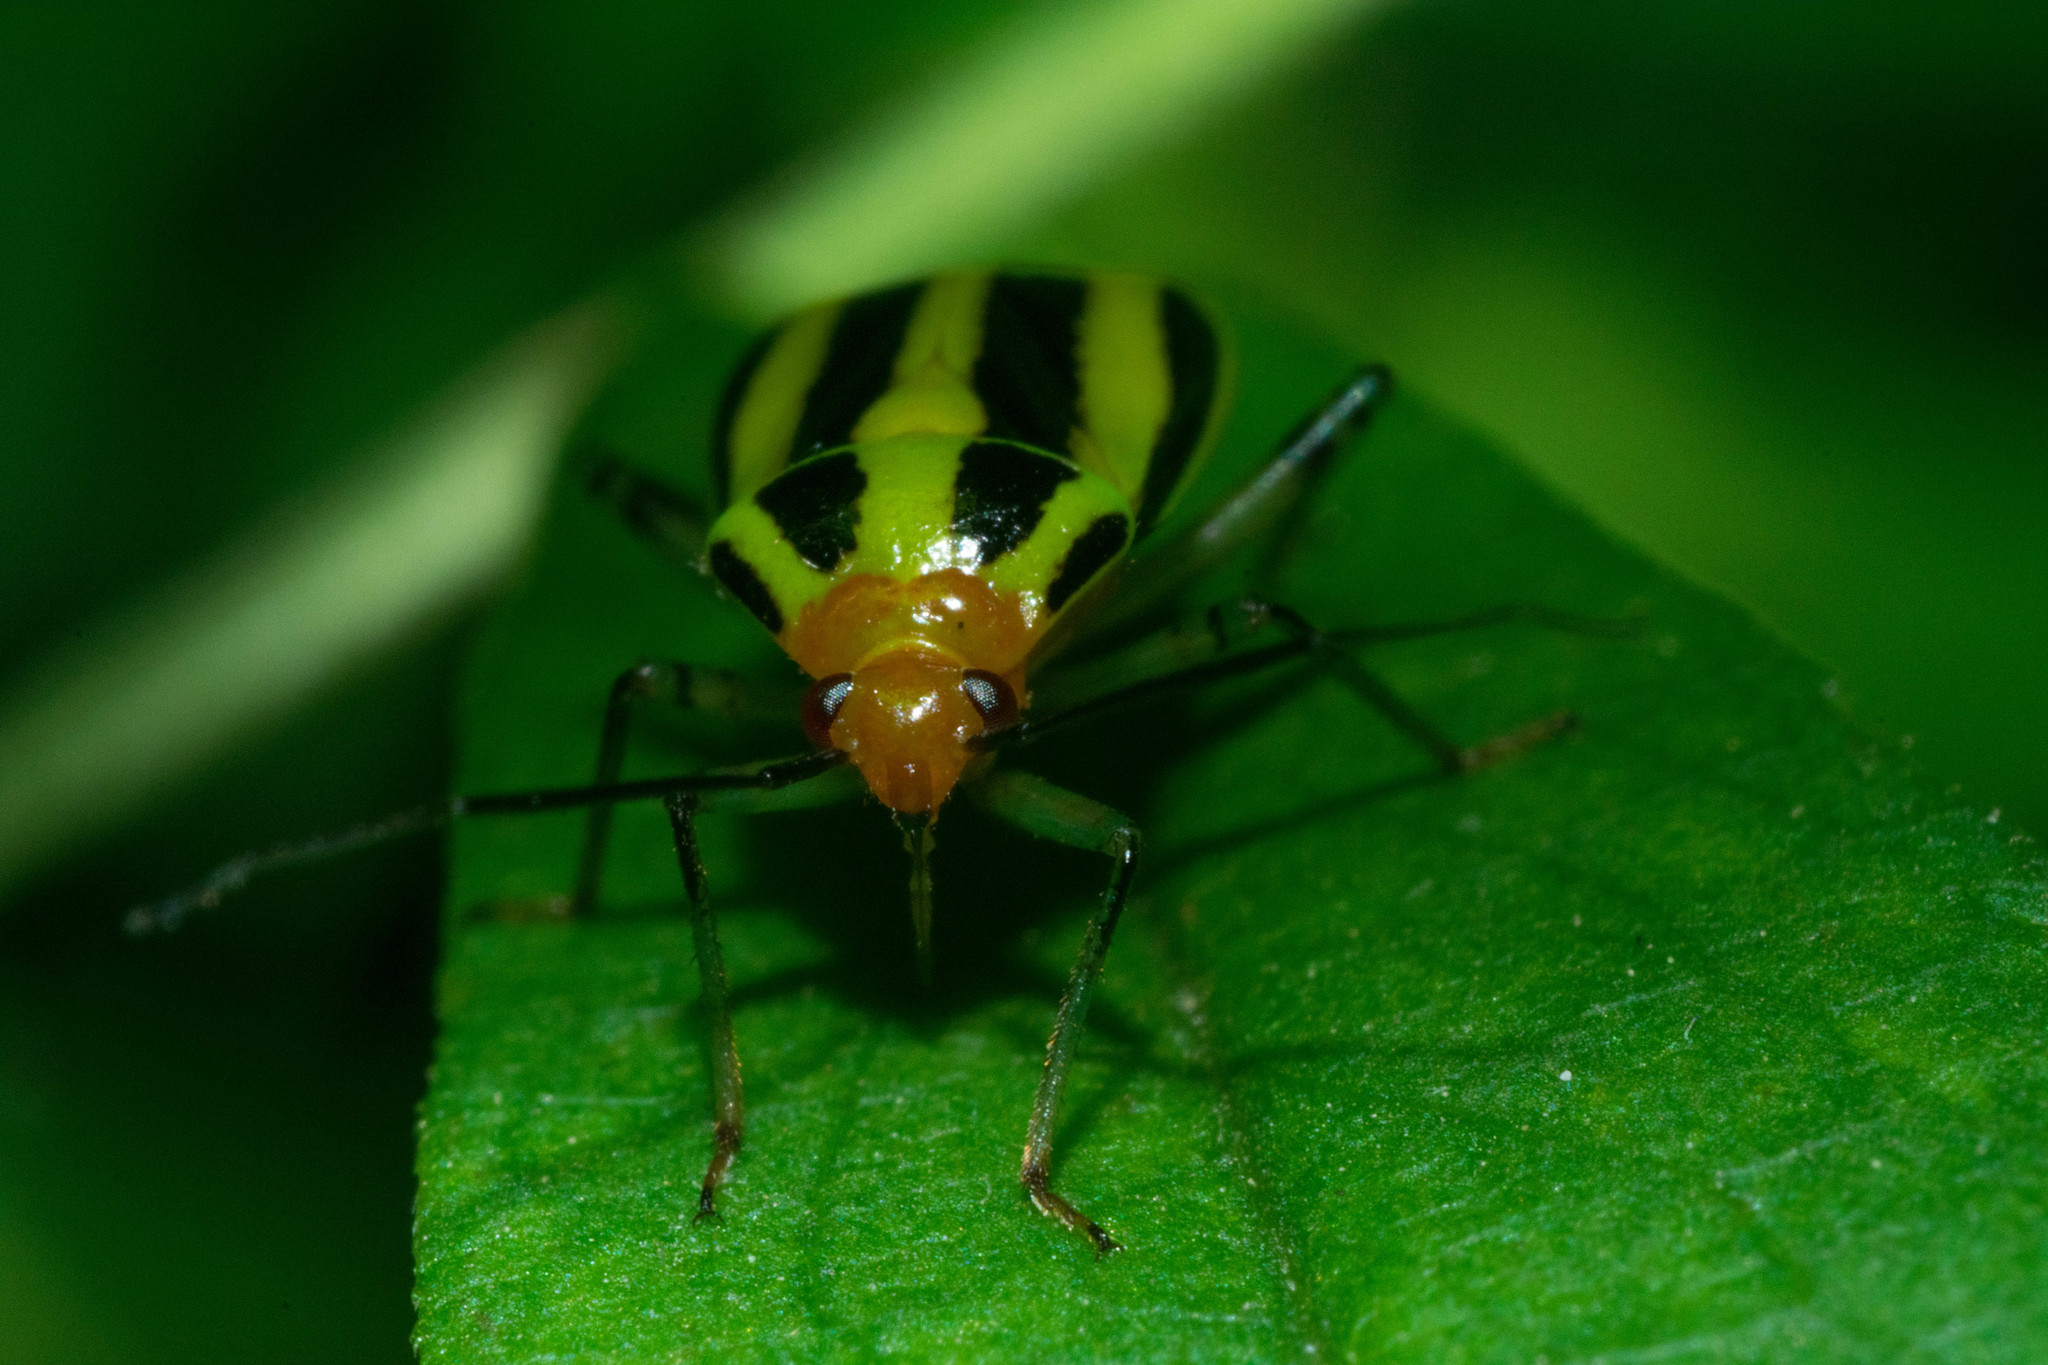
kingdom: Animalia
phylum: Arthropoda
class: Insecta
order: Hemiptera
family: Miridae
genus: Poecilocapsus
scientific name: Poecilocapsus lineatus
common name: Four-lined plant bug
